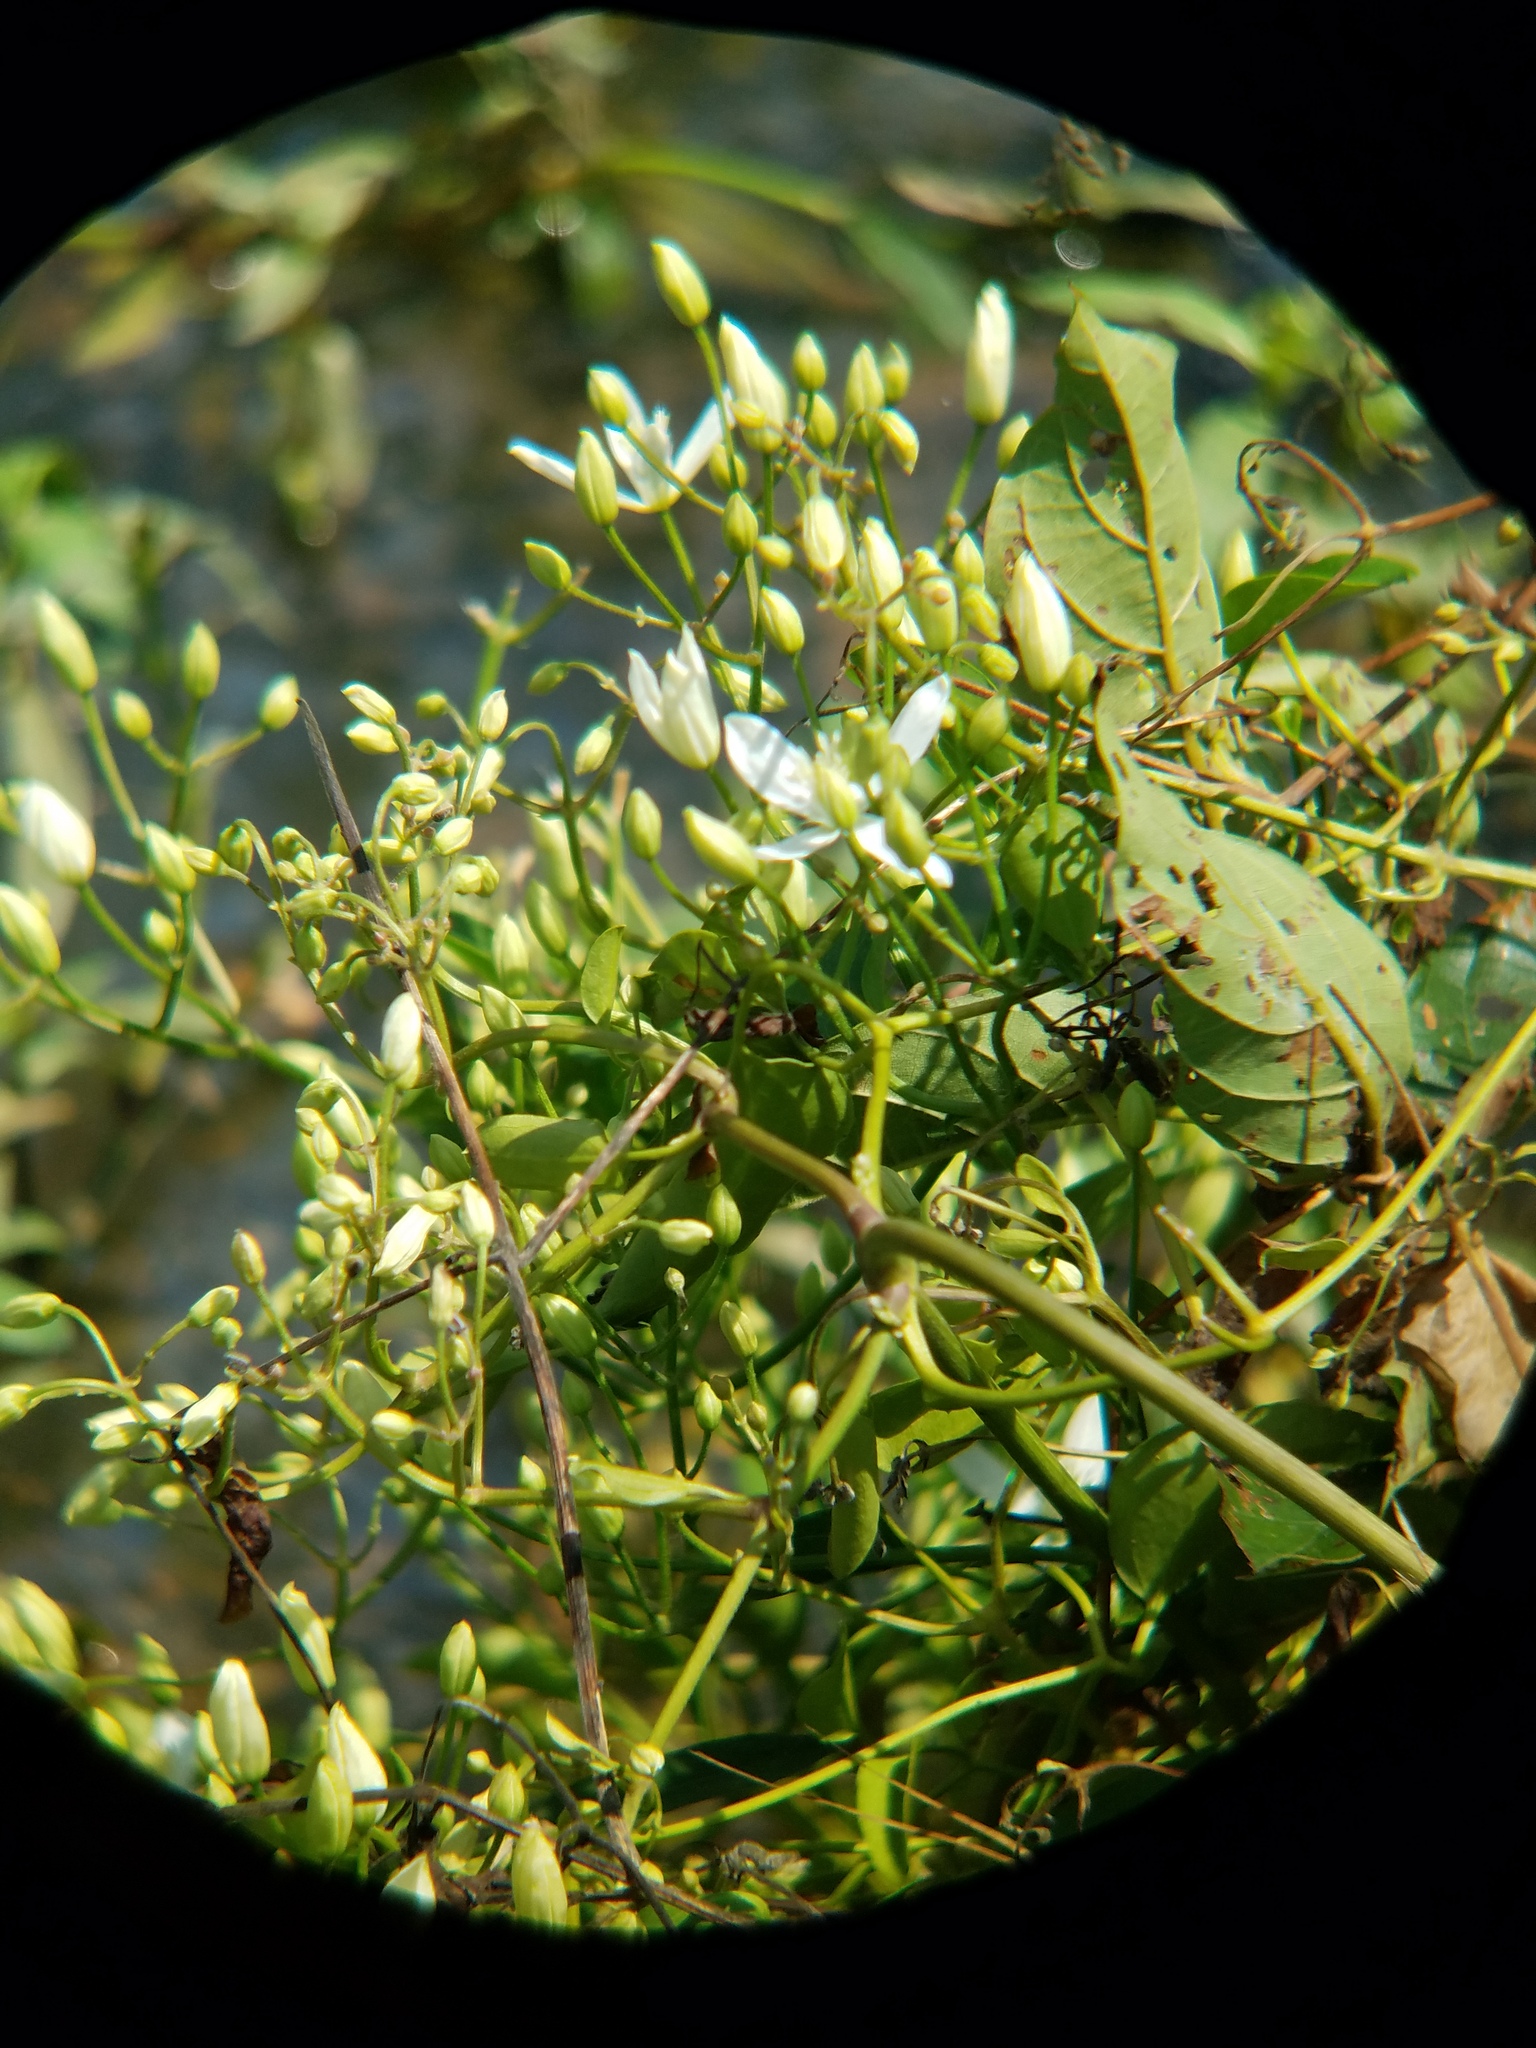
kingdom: Plantae
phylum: Tracheophyta
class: Magnoliopsida
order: Ranunculales
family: Ranunculaceae
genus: Clematis
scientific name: Clematis terniflora
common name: Sweet autumn clematis
